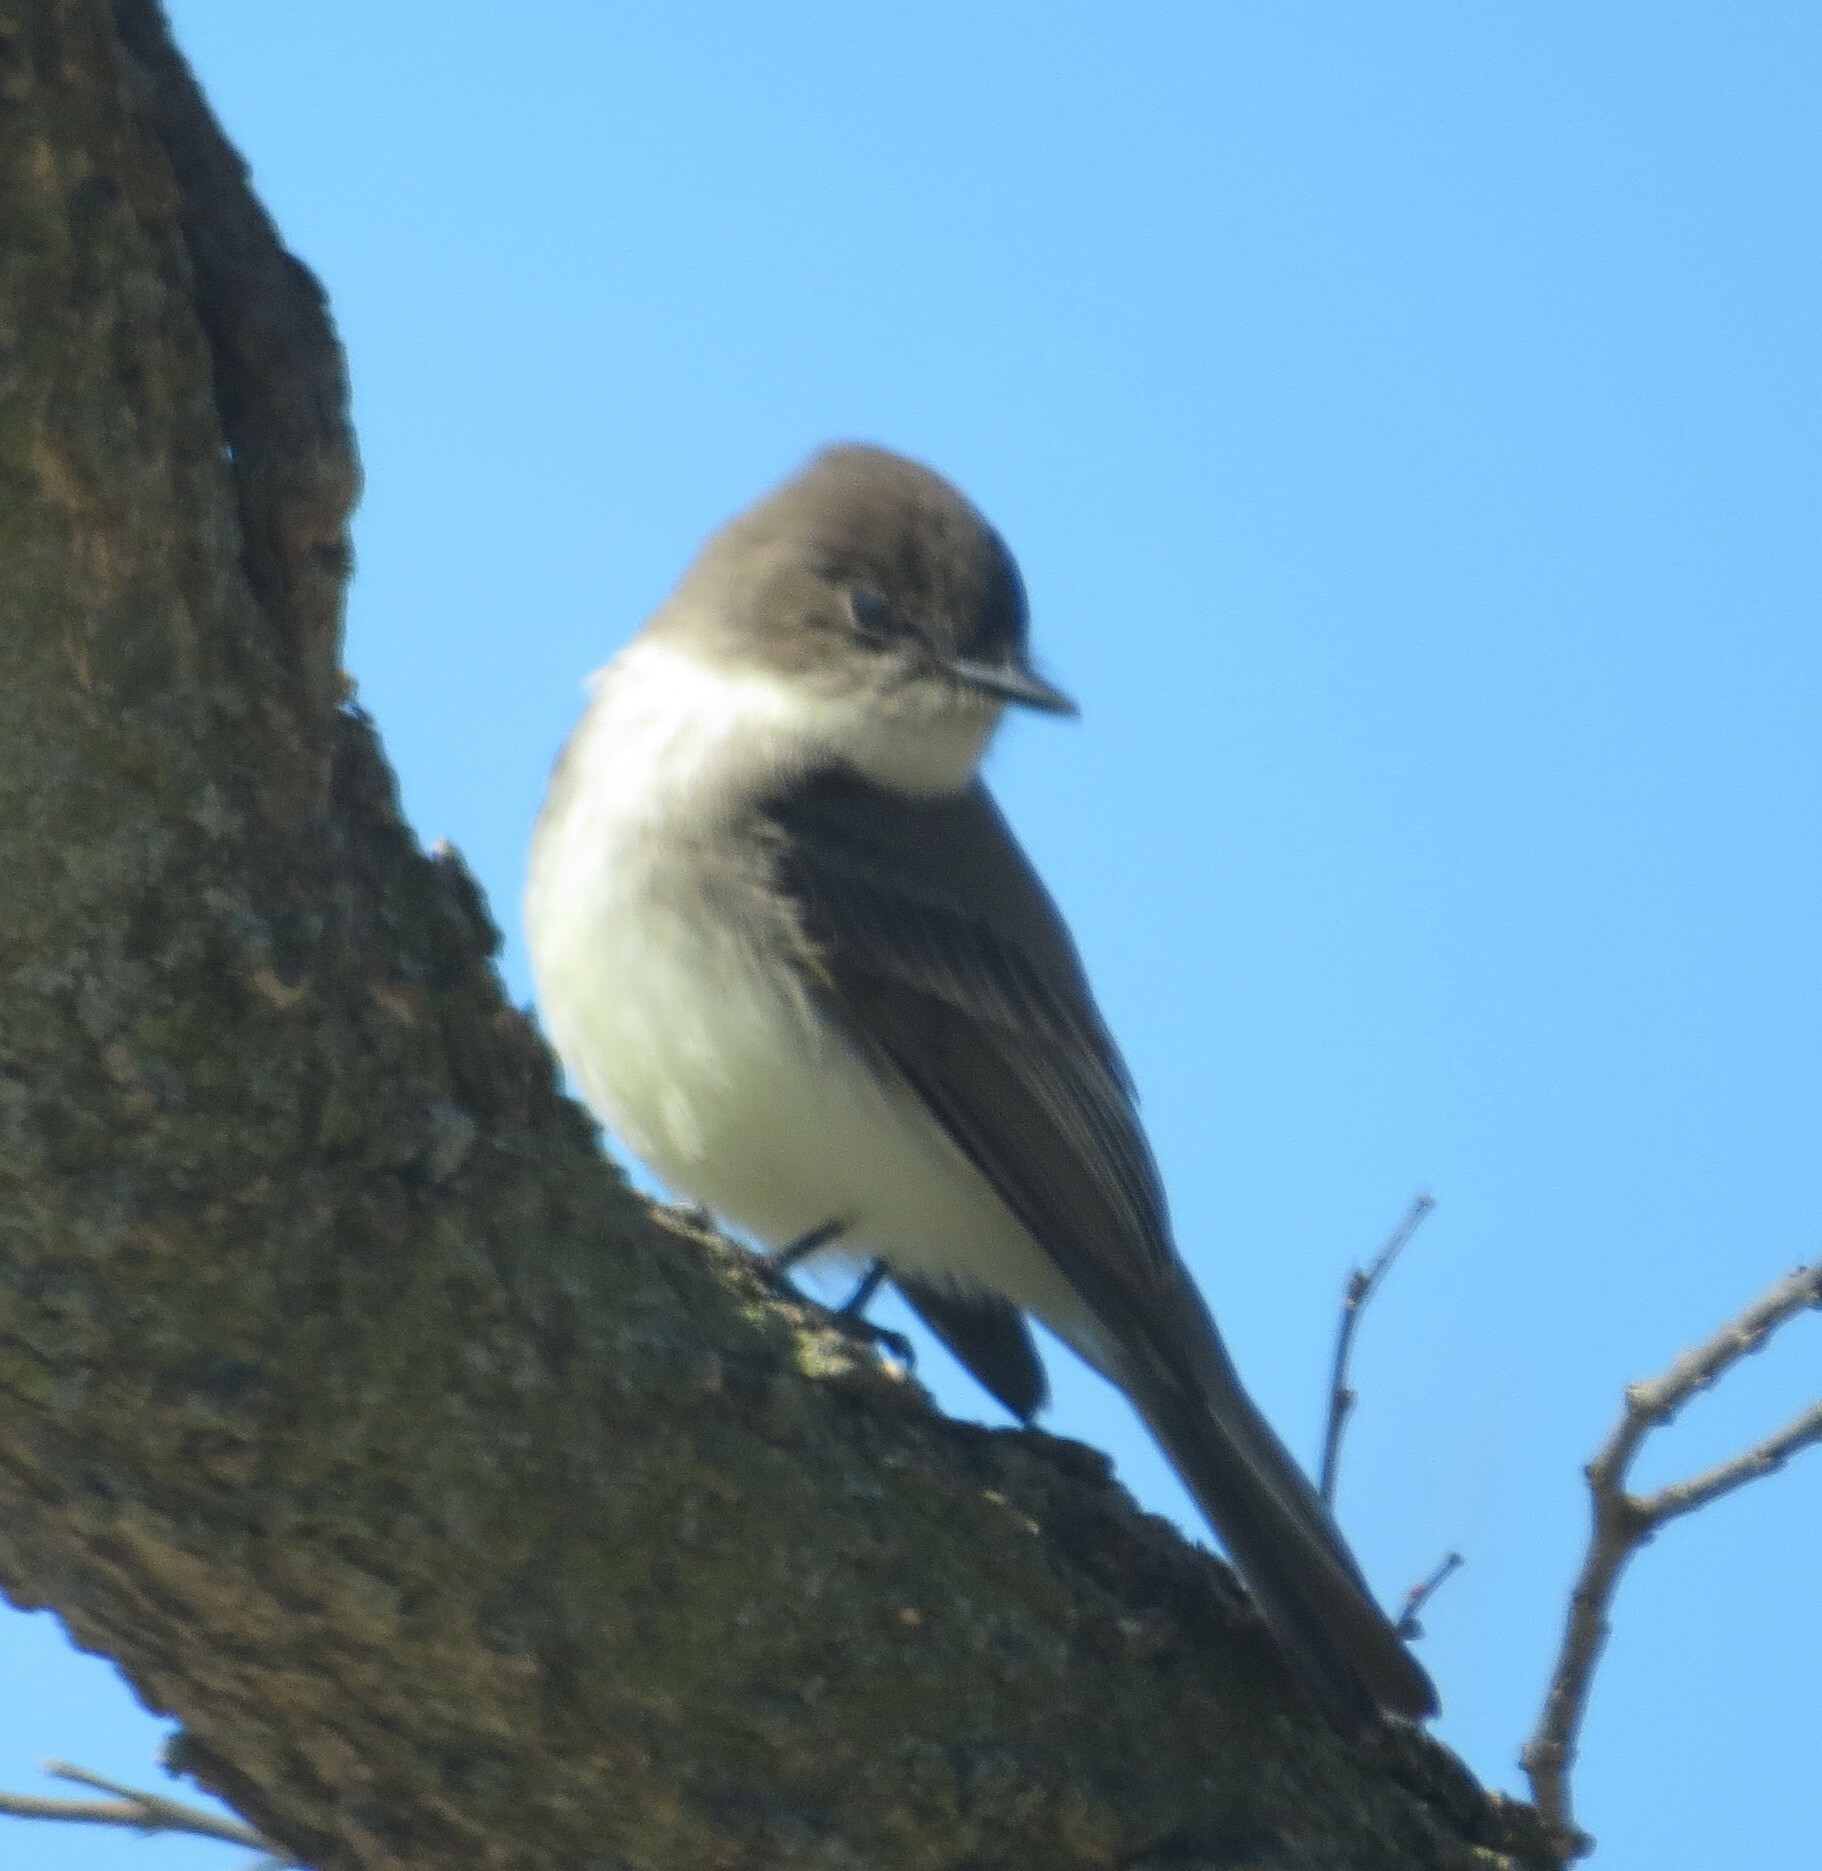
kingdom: Animalia
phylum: Chordata
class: Aves
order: Passeriformes
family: Tyrannidae
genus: Sayornis
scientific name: Sayornis phoebe
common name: Eastern phoebe
